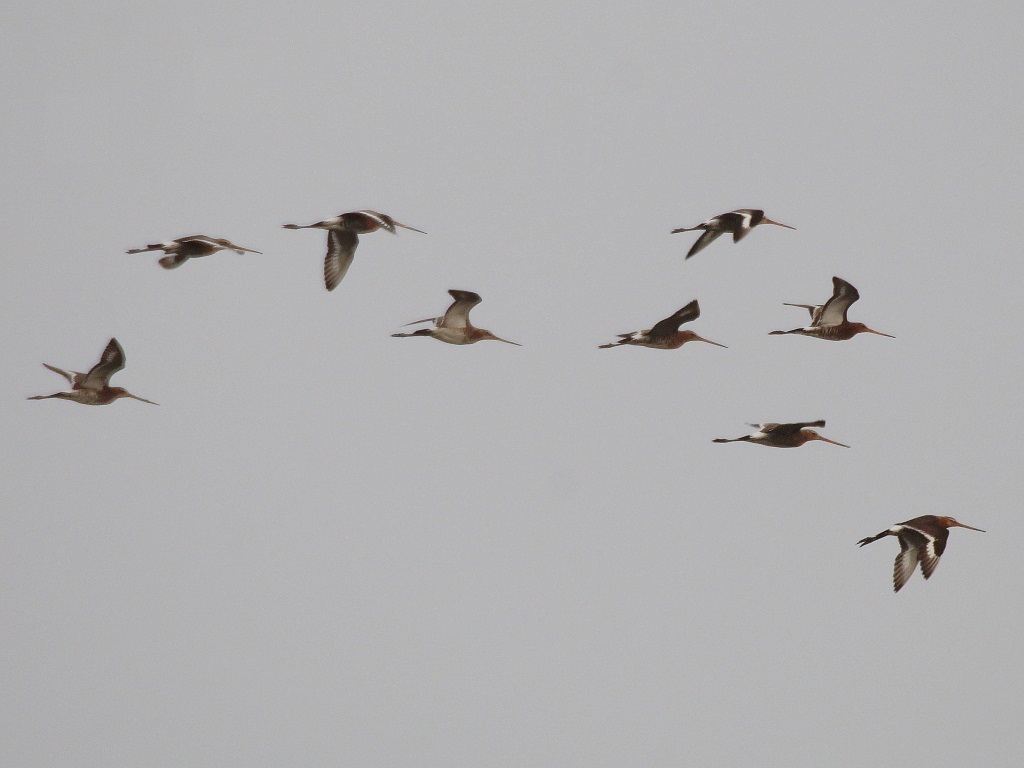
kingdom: Animalia
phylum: Chordata
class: Aves
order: Charadriiformes
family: Scolopacidae
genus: Limosa
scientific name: Limosa limosa
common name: Black-tailed godwit
